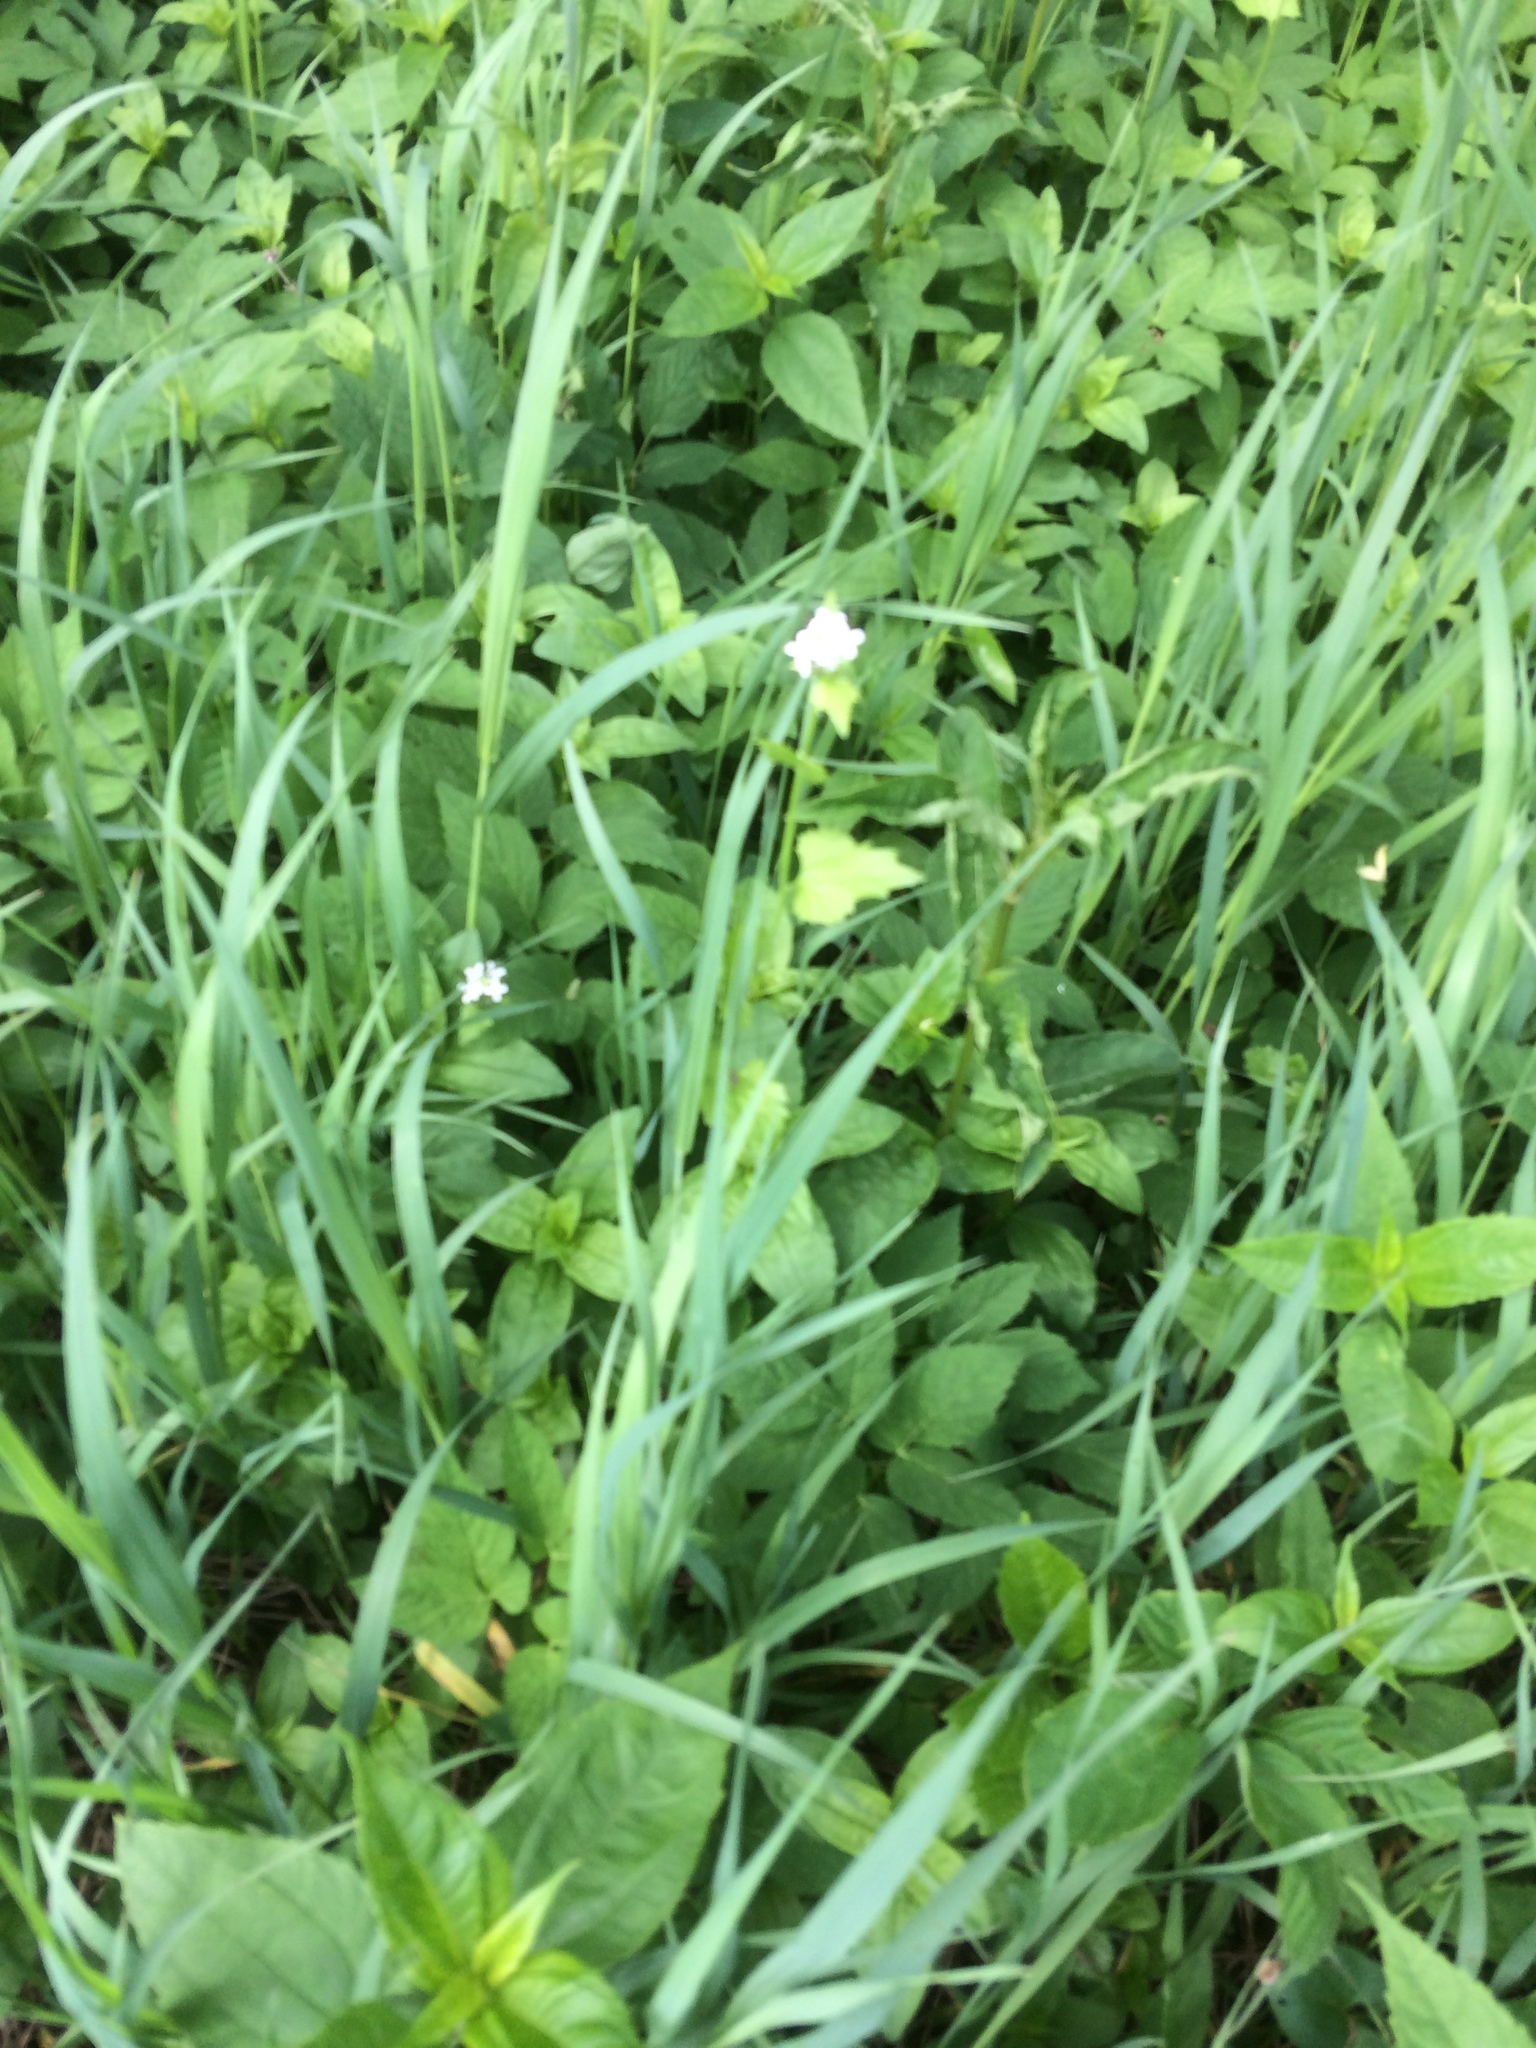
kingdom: Plantae
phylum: Tracheophyta
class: Magnoliopsida
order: Brassicales
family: Brassicaceae
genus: Alliaria
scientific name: Alliaria petiolata
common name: Garlic mustard
